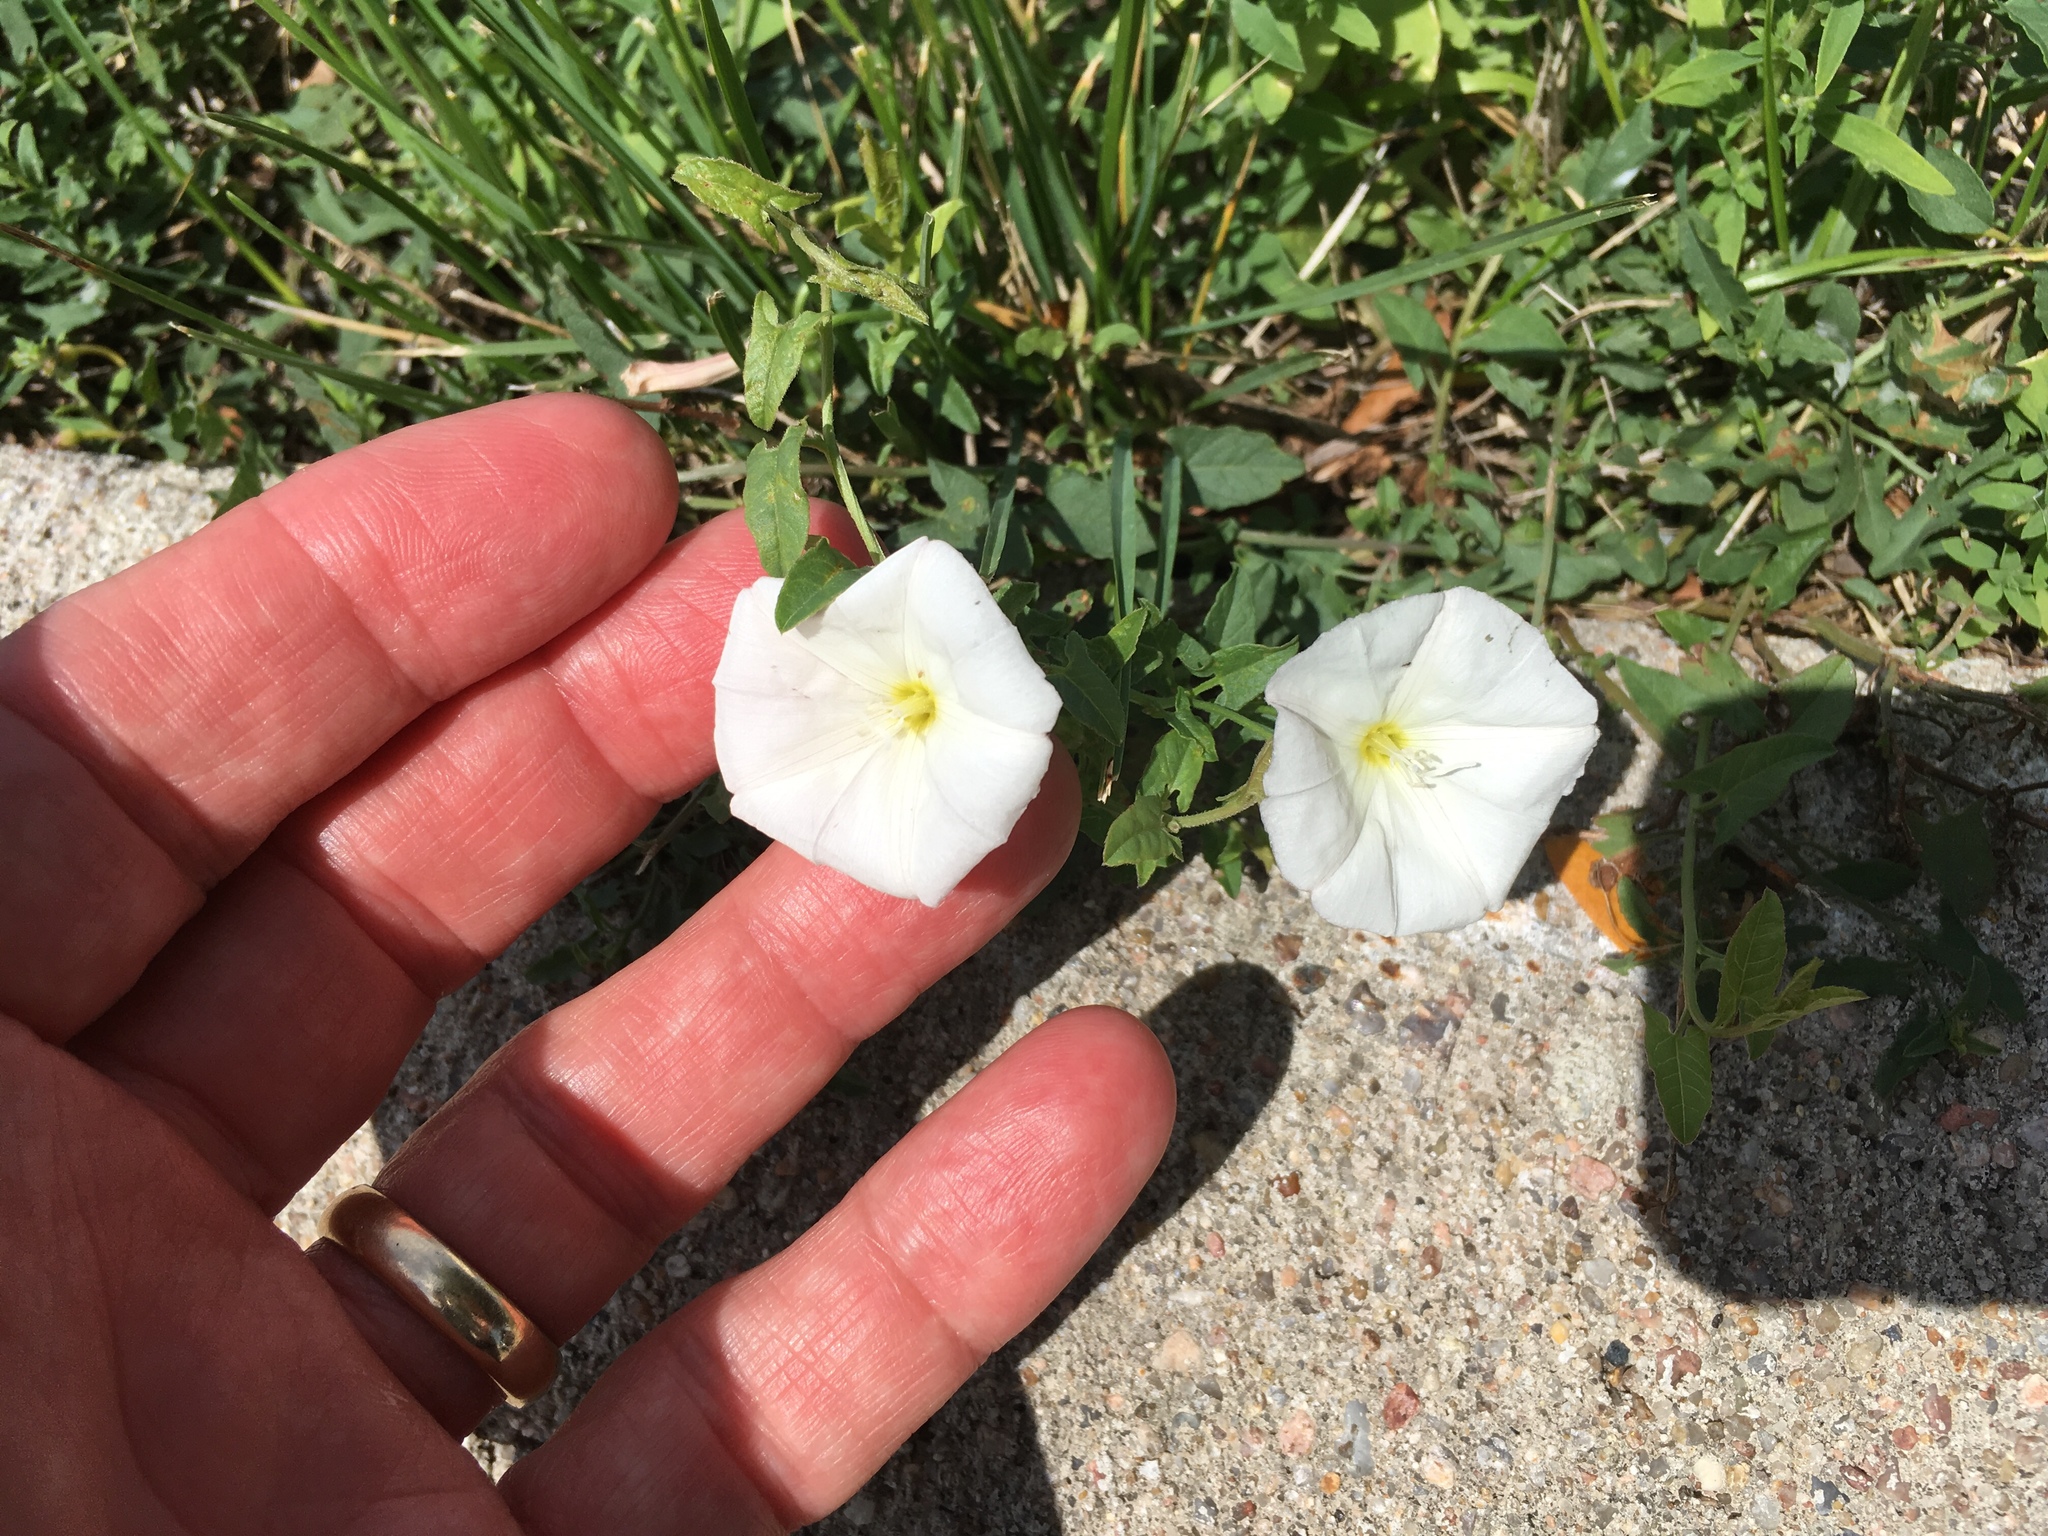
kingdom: Plantae
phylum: Tracheophyta
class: Magnoliopsida
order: Solanales
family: Convolvulaceae
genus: Convolvulus
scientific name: Convolvulus arvensis
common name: Field bindweed
